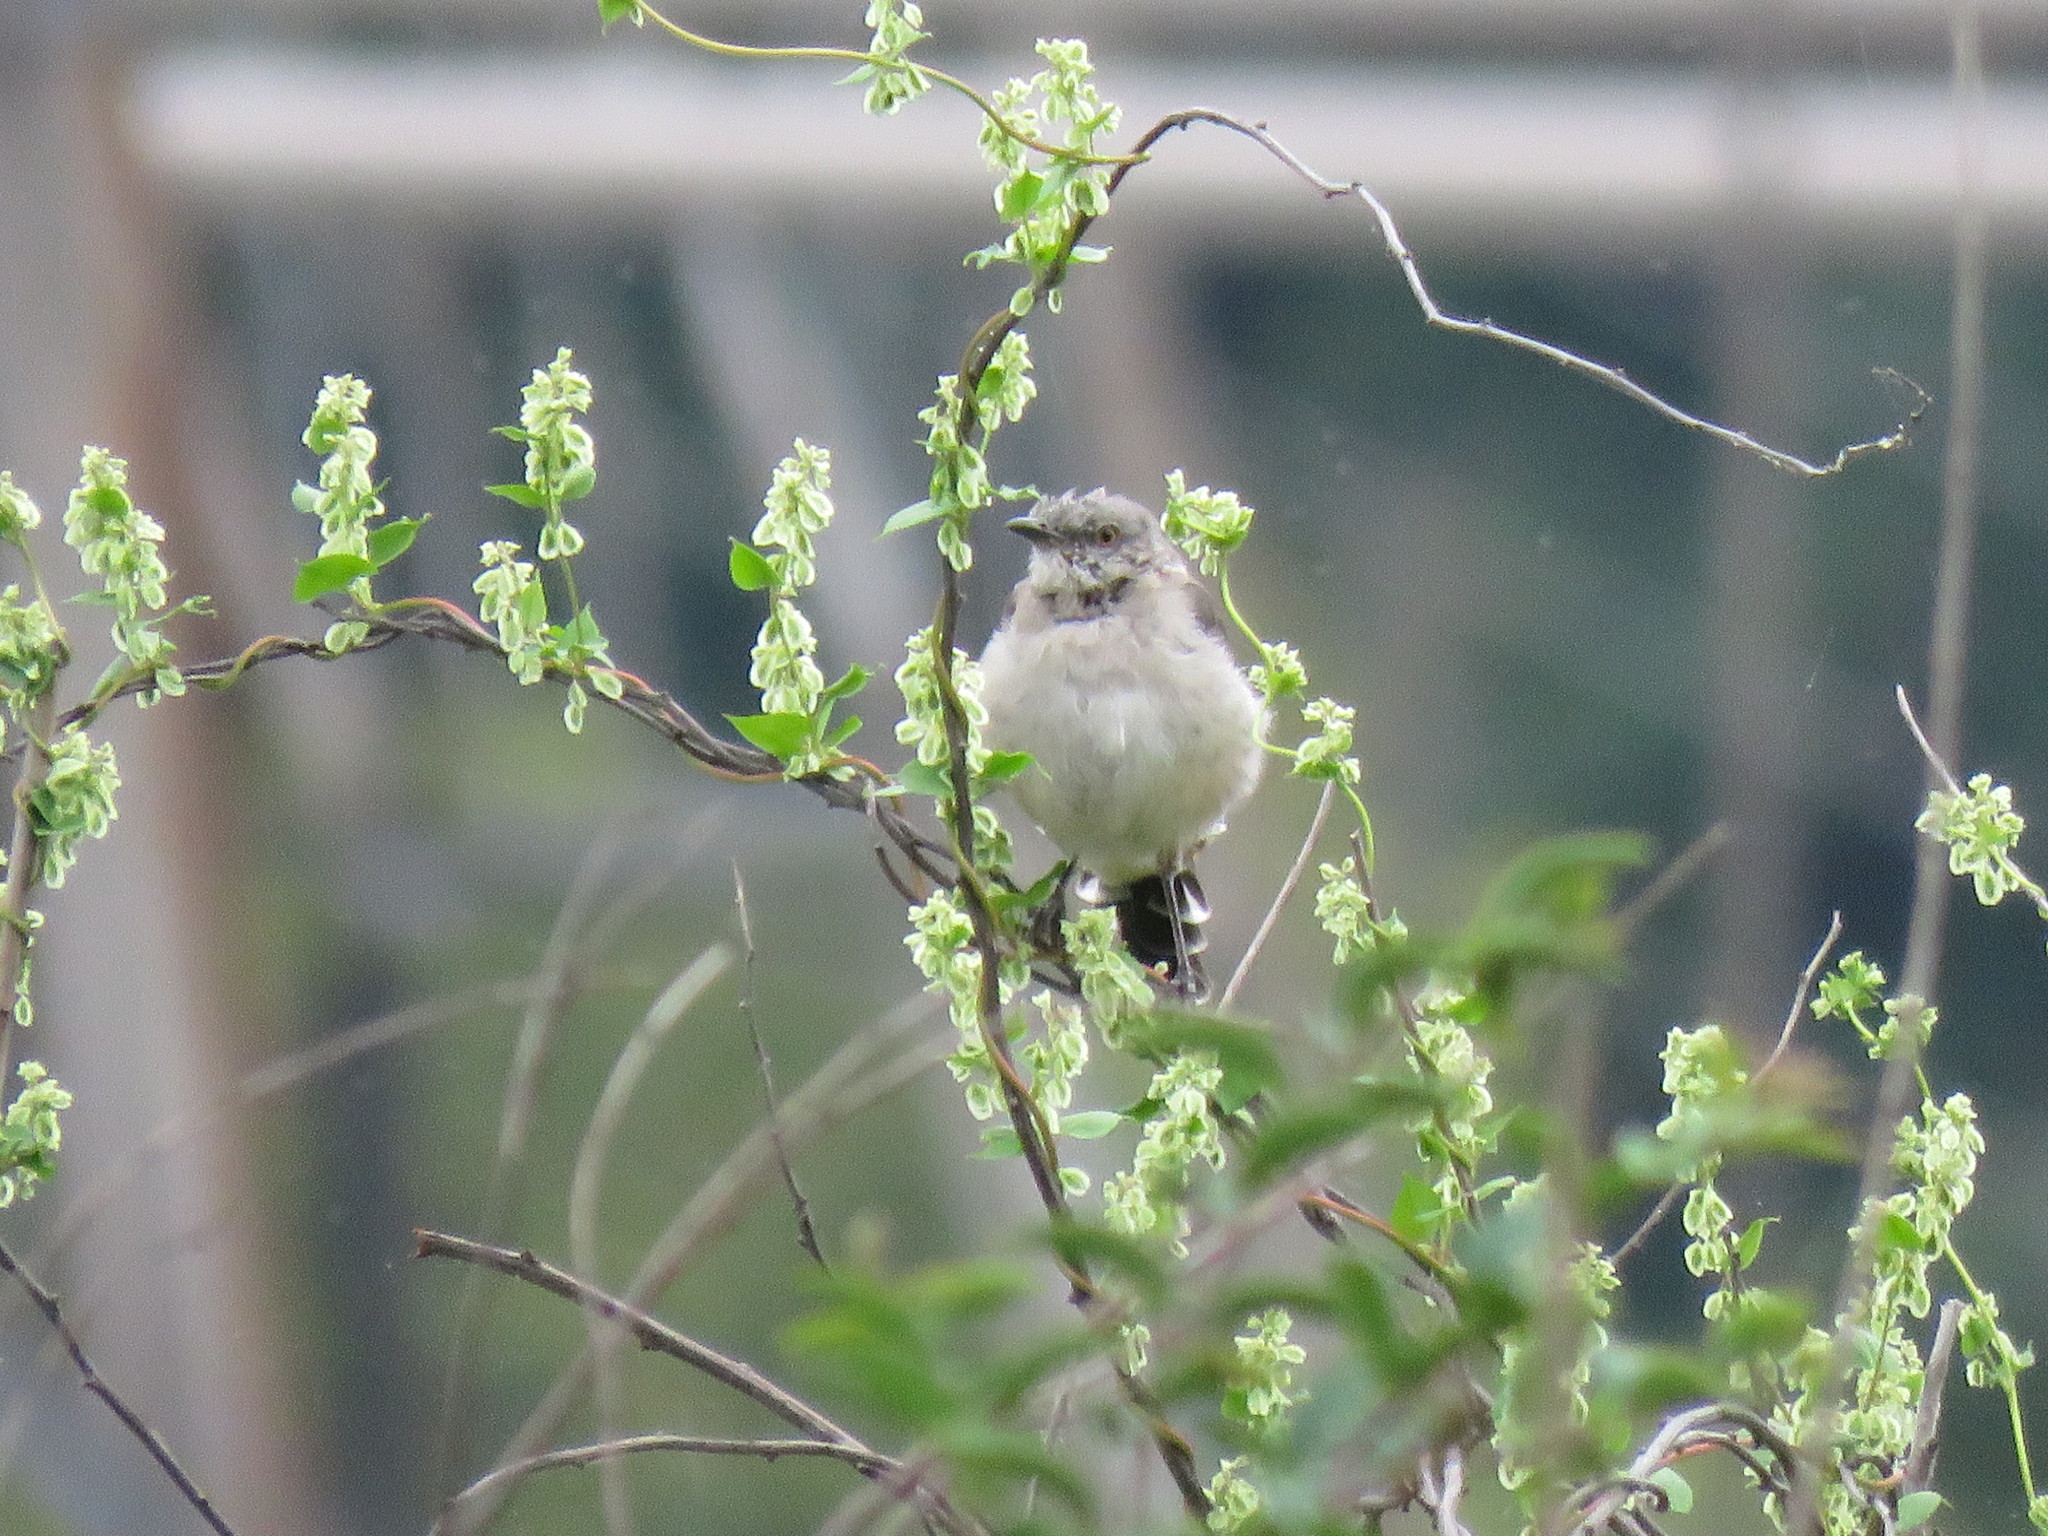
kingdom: Animalia
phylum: Chordata
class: Aves
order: Passeriformes
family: Mimidae
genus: Mimus
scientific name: Mimus polyglottos
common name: Northern mockingbird
